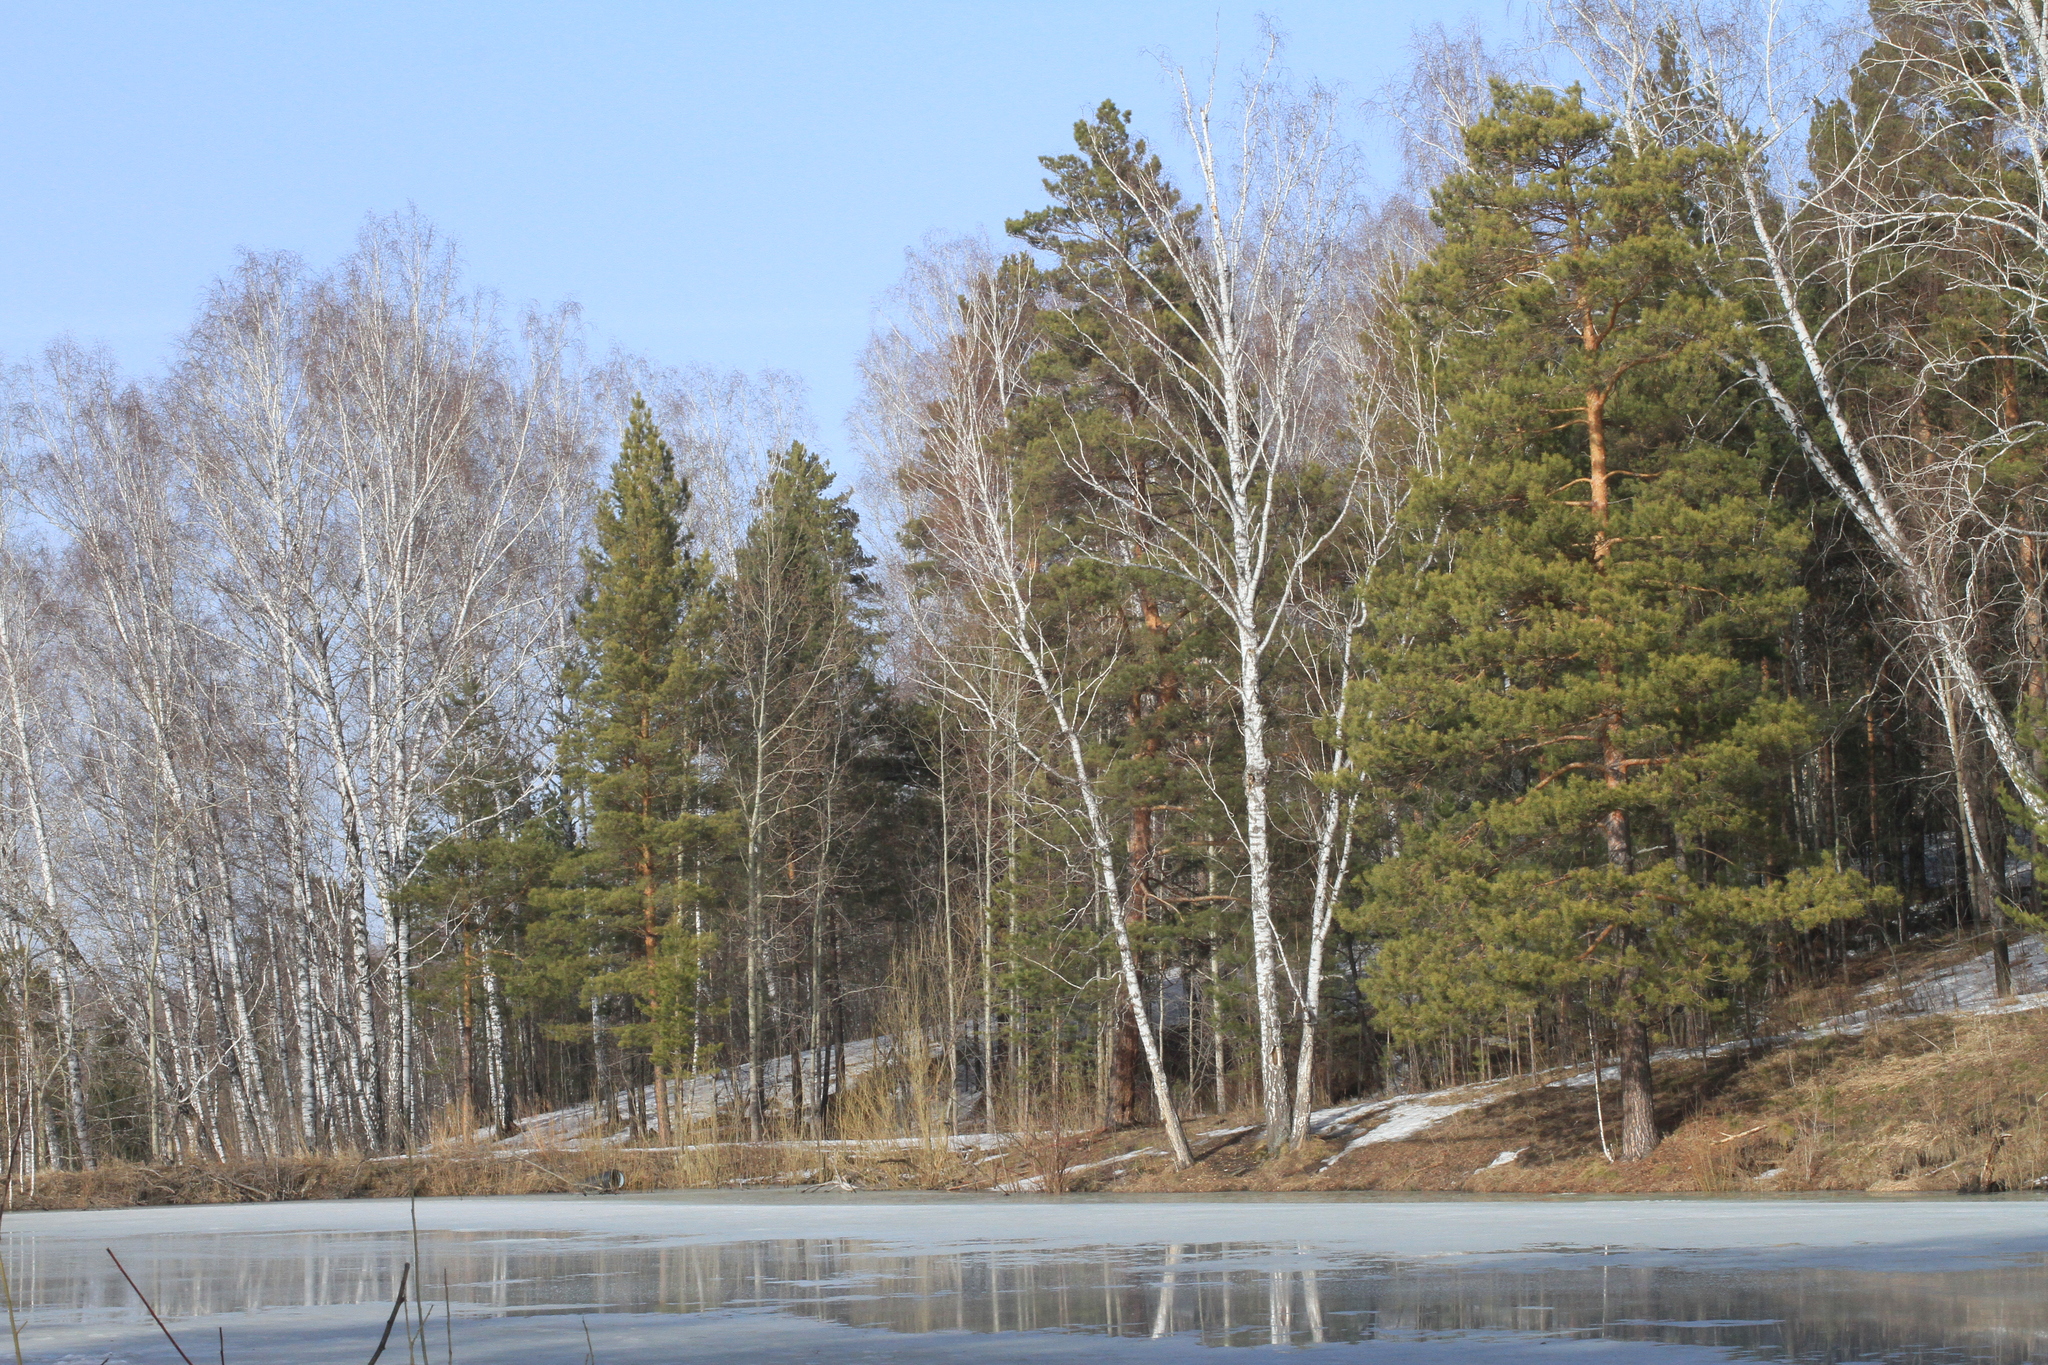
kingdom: Plantae
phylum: Tracheophyta
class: Magnoliopsida
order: Fagales
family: Betulaceae
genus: Betula
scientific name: Betula pendula
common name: Silver birch
